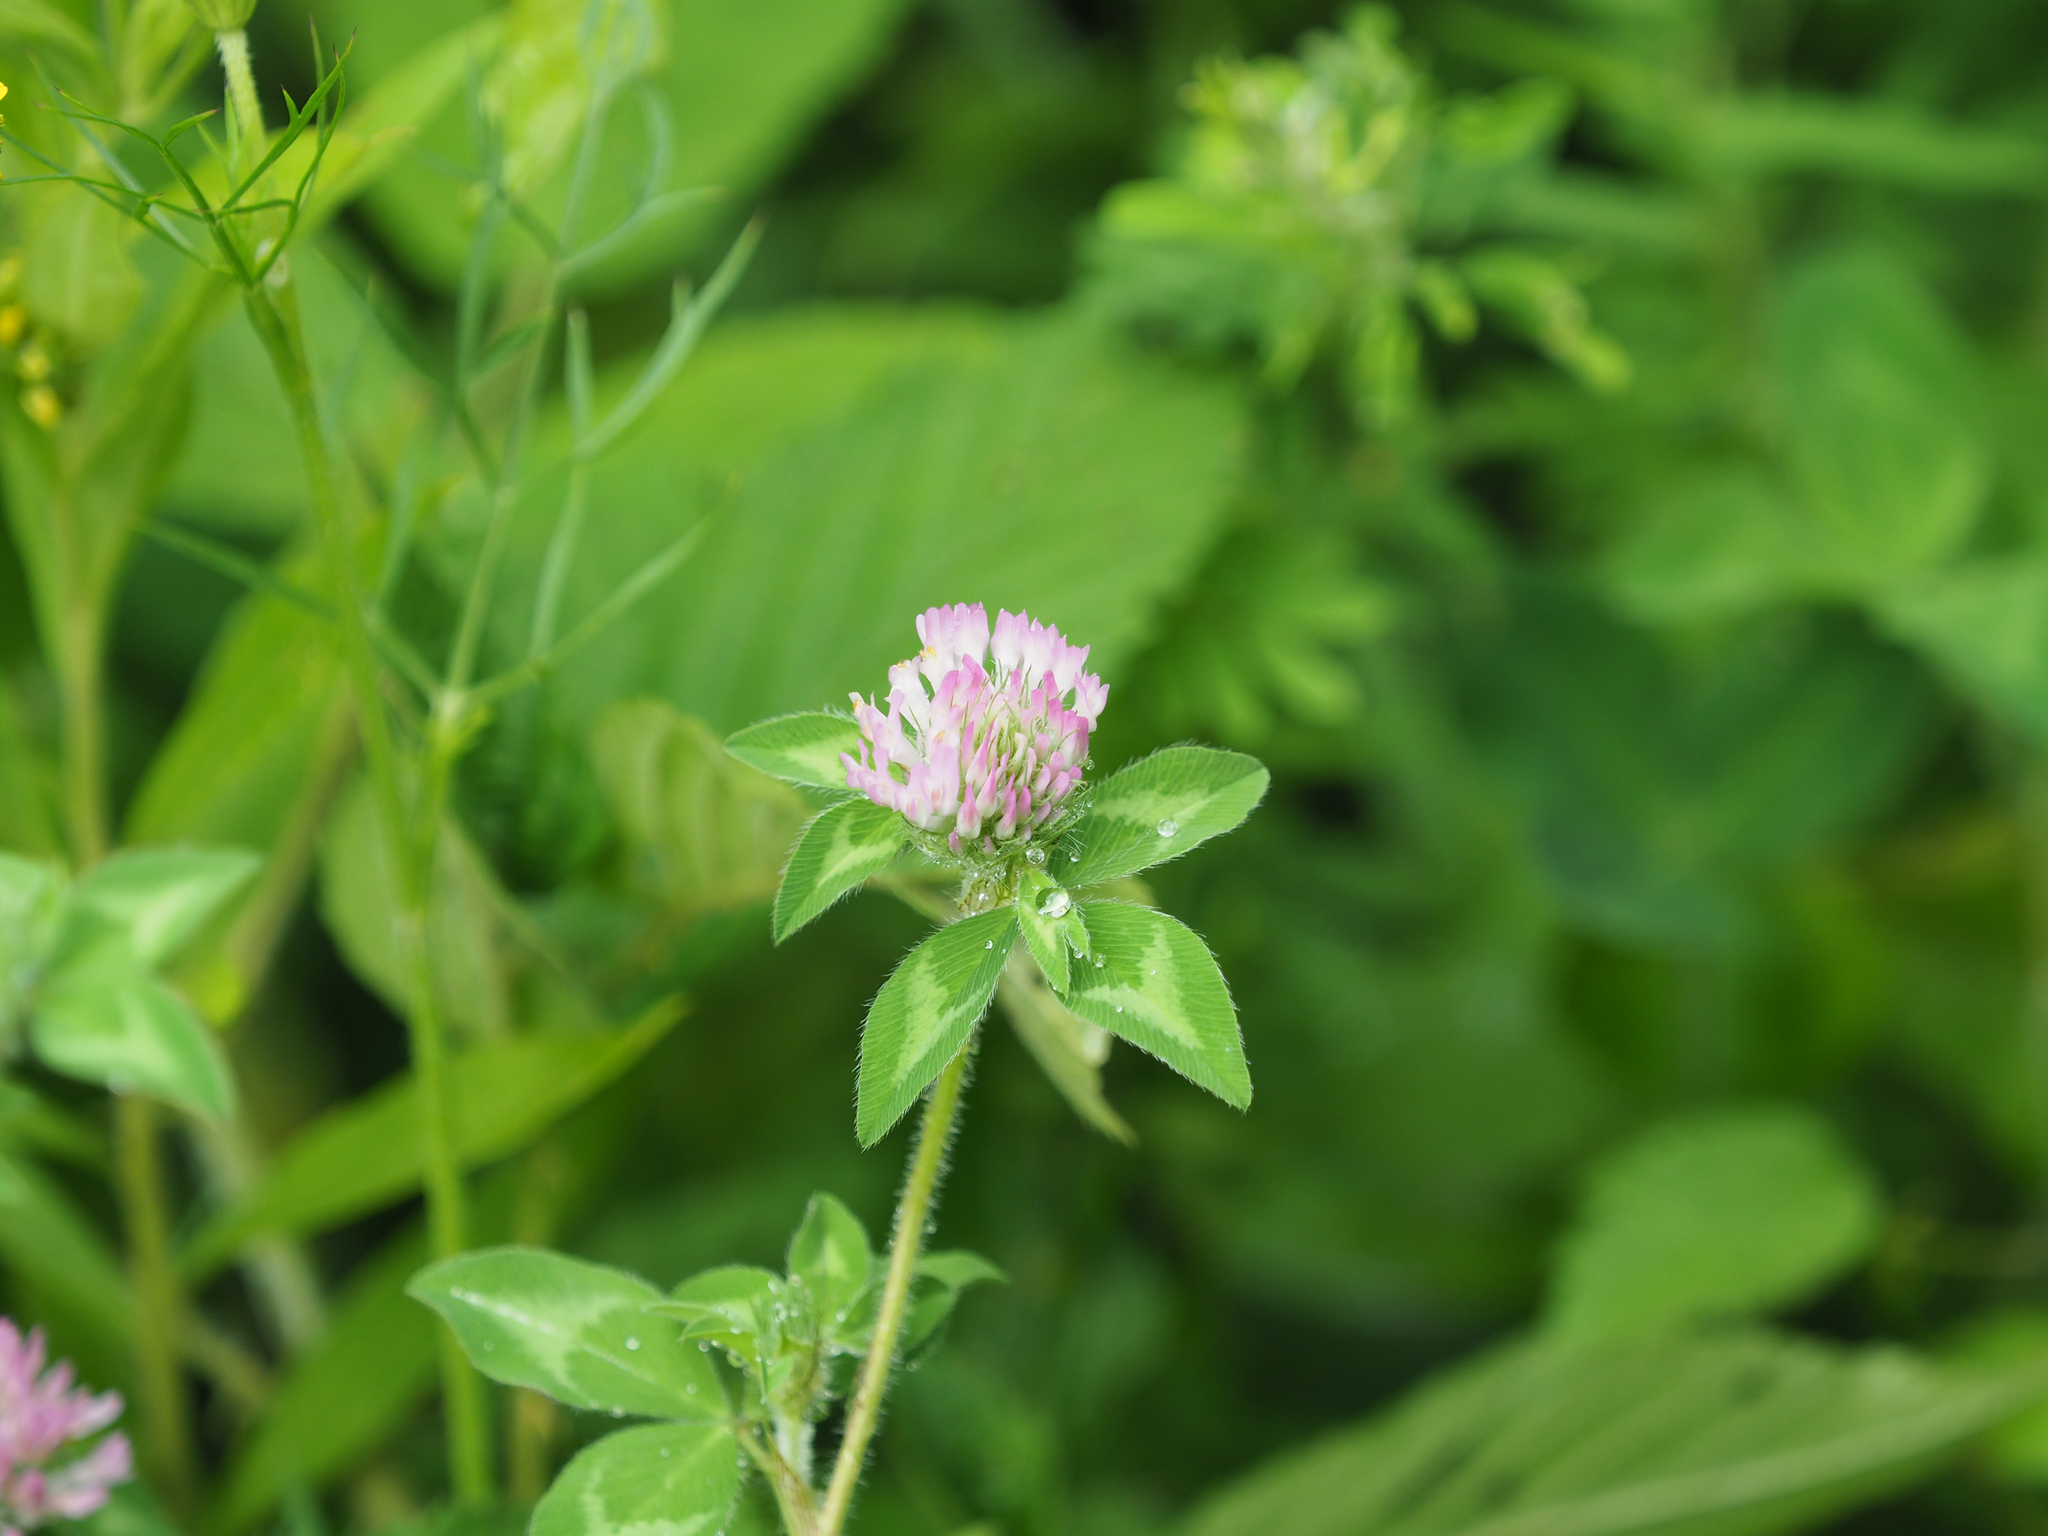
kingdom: Plantae
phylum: Tracheophyta
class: Magnoliopsida
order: Fabales
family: Fabaceae
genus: Trifolium
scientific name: Trifolium pratense
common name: Red clover
